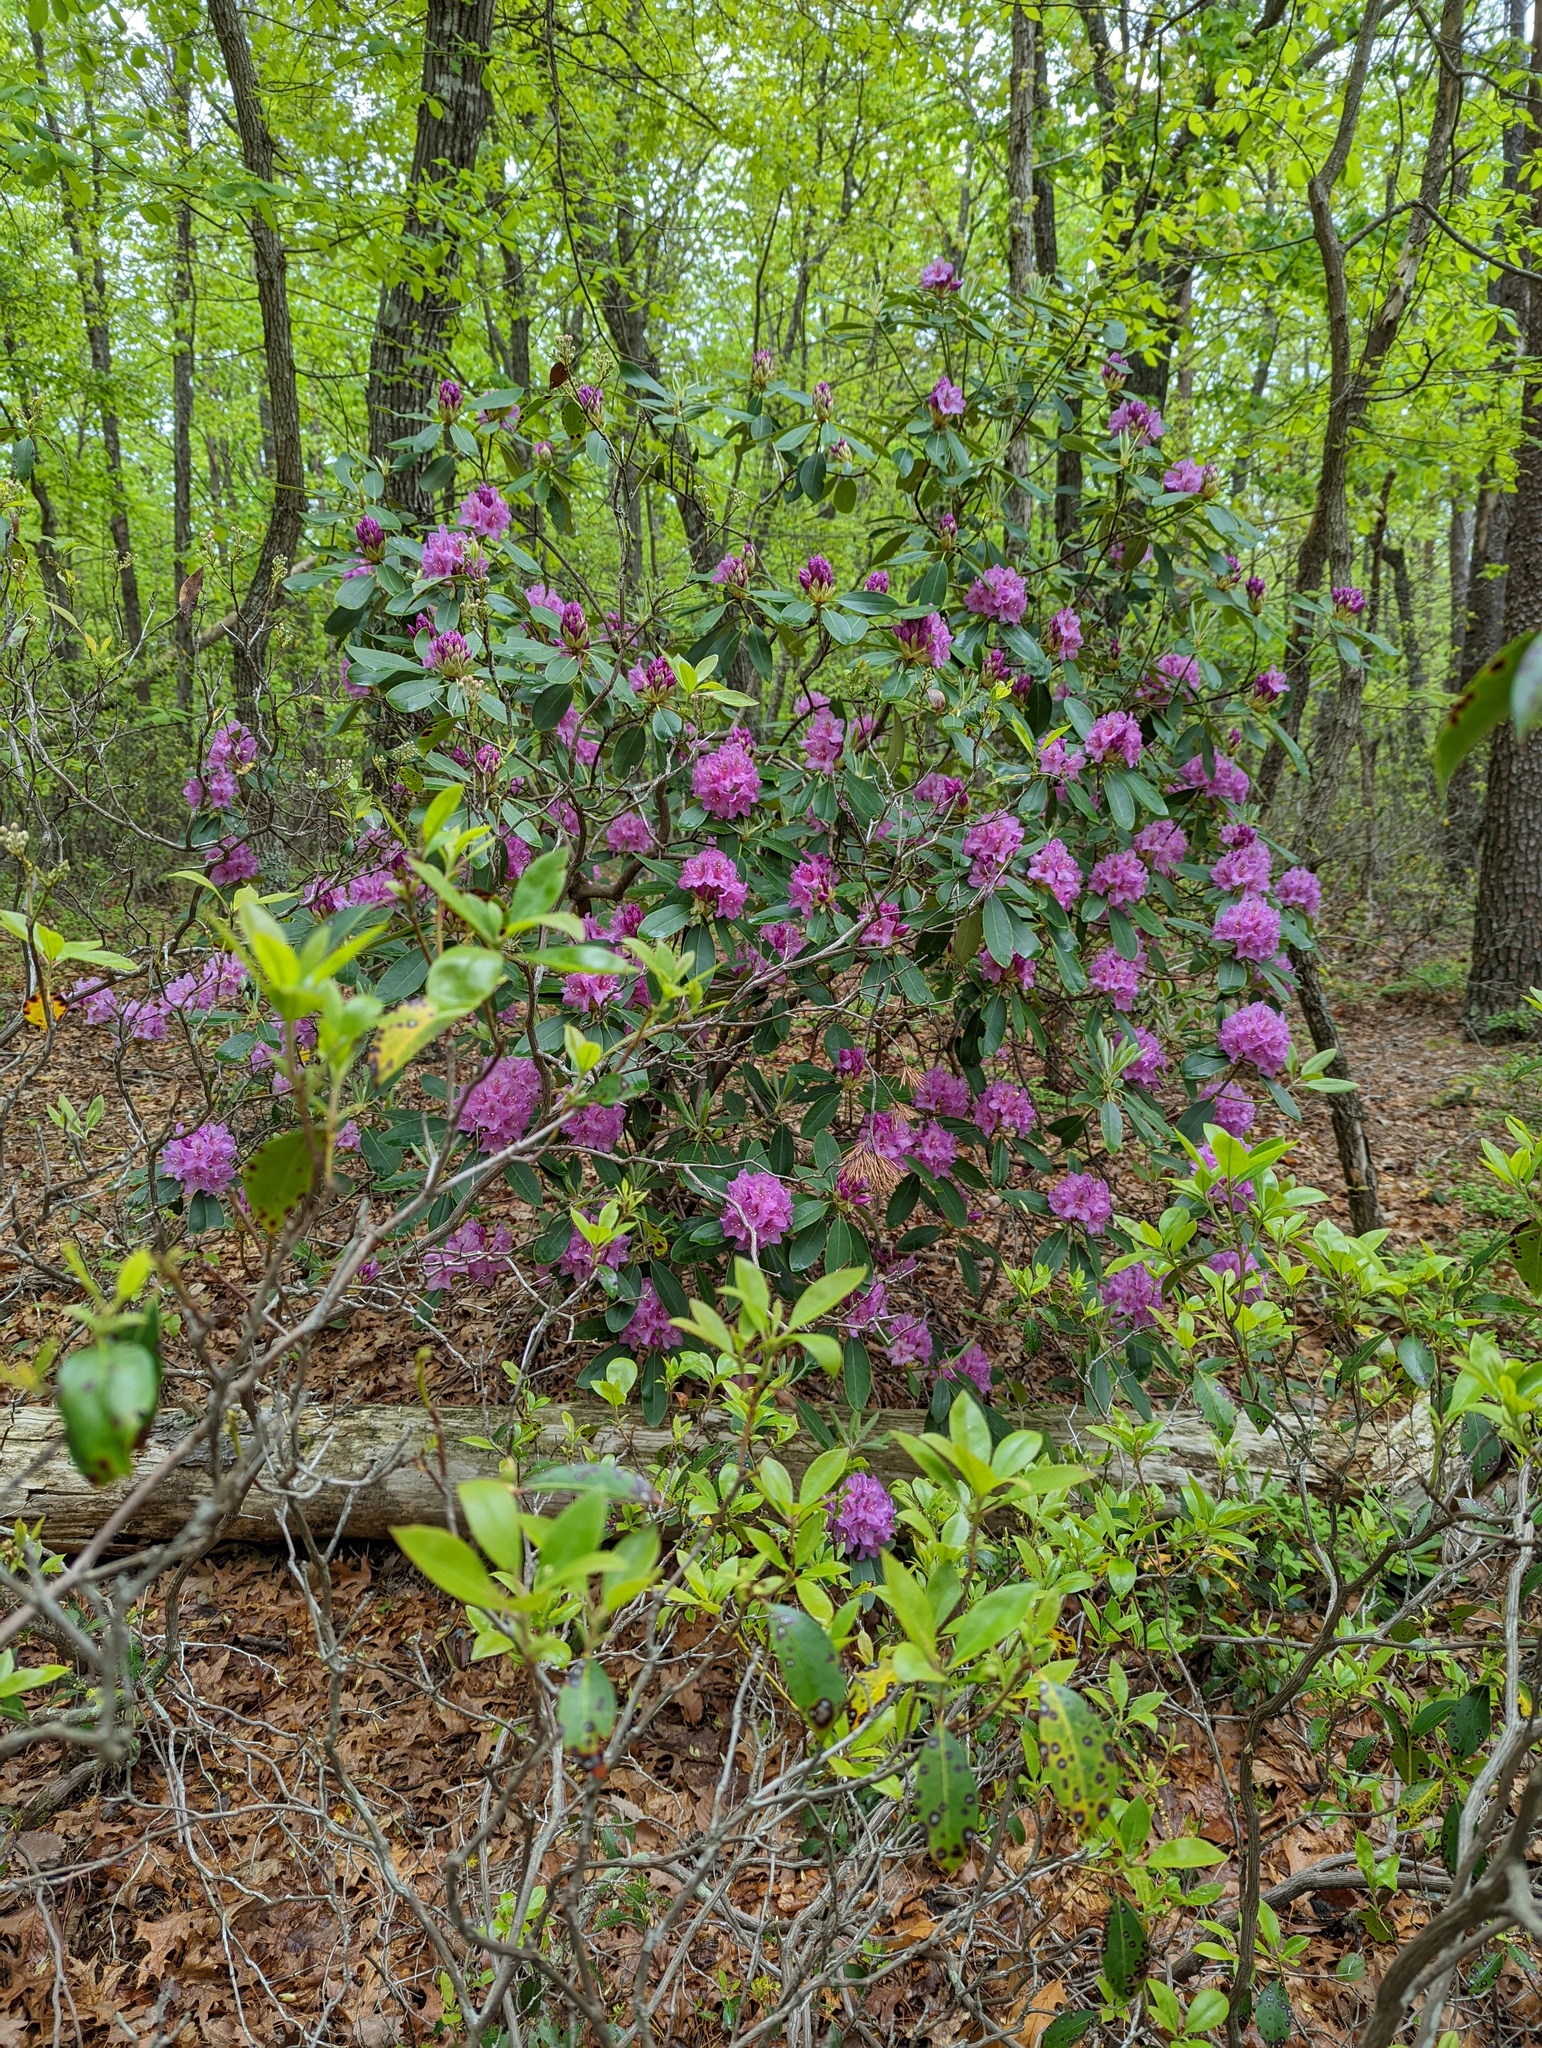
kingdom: Plantae
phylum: Tracheophyta
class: Magnoliopsida
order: Ericales
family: Ericaceae
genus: Rhododendron
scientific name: Rhododendron catawbiense
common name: Catawba rhododendron
